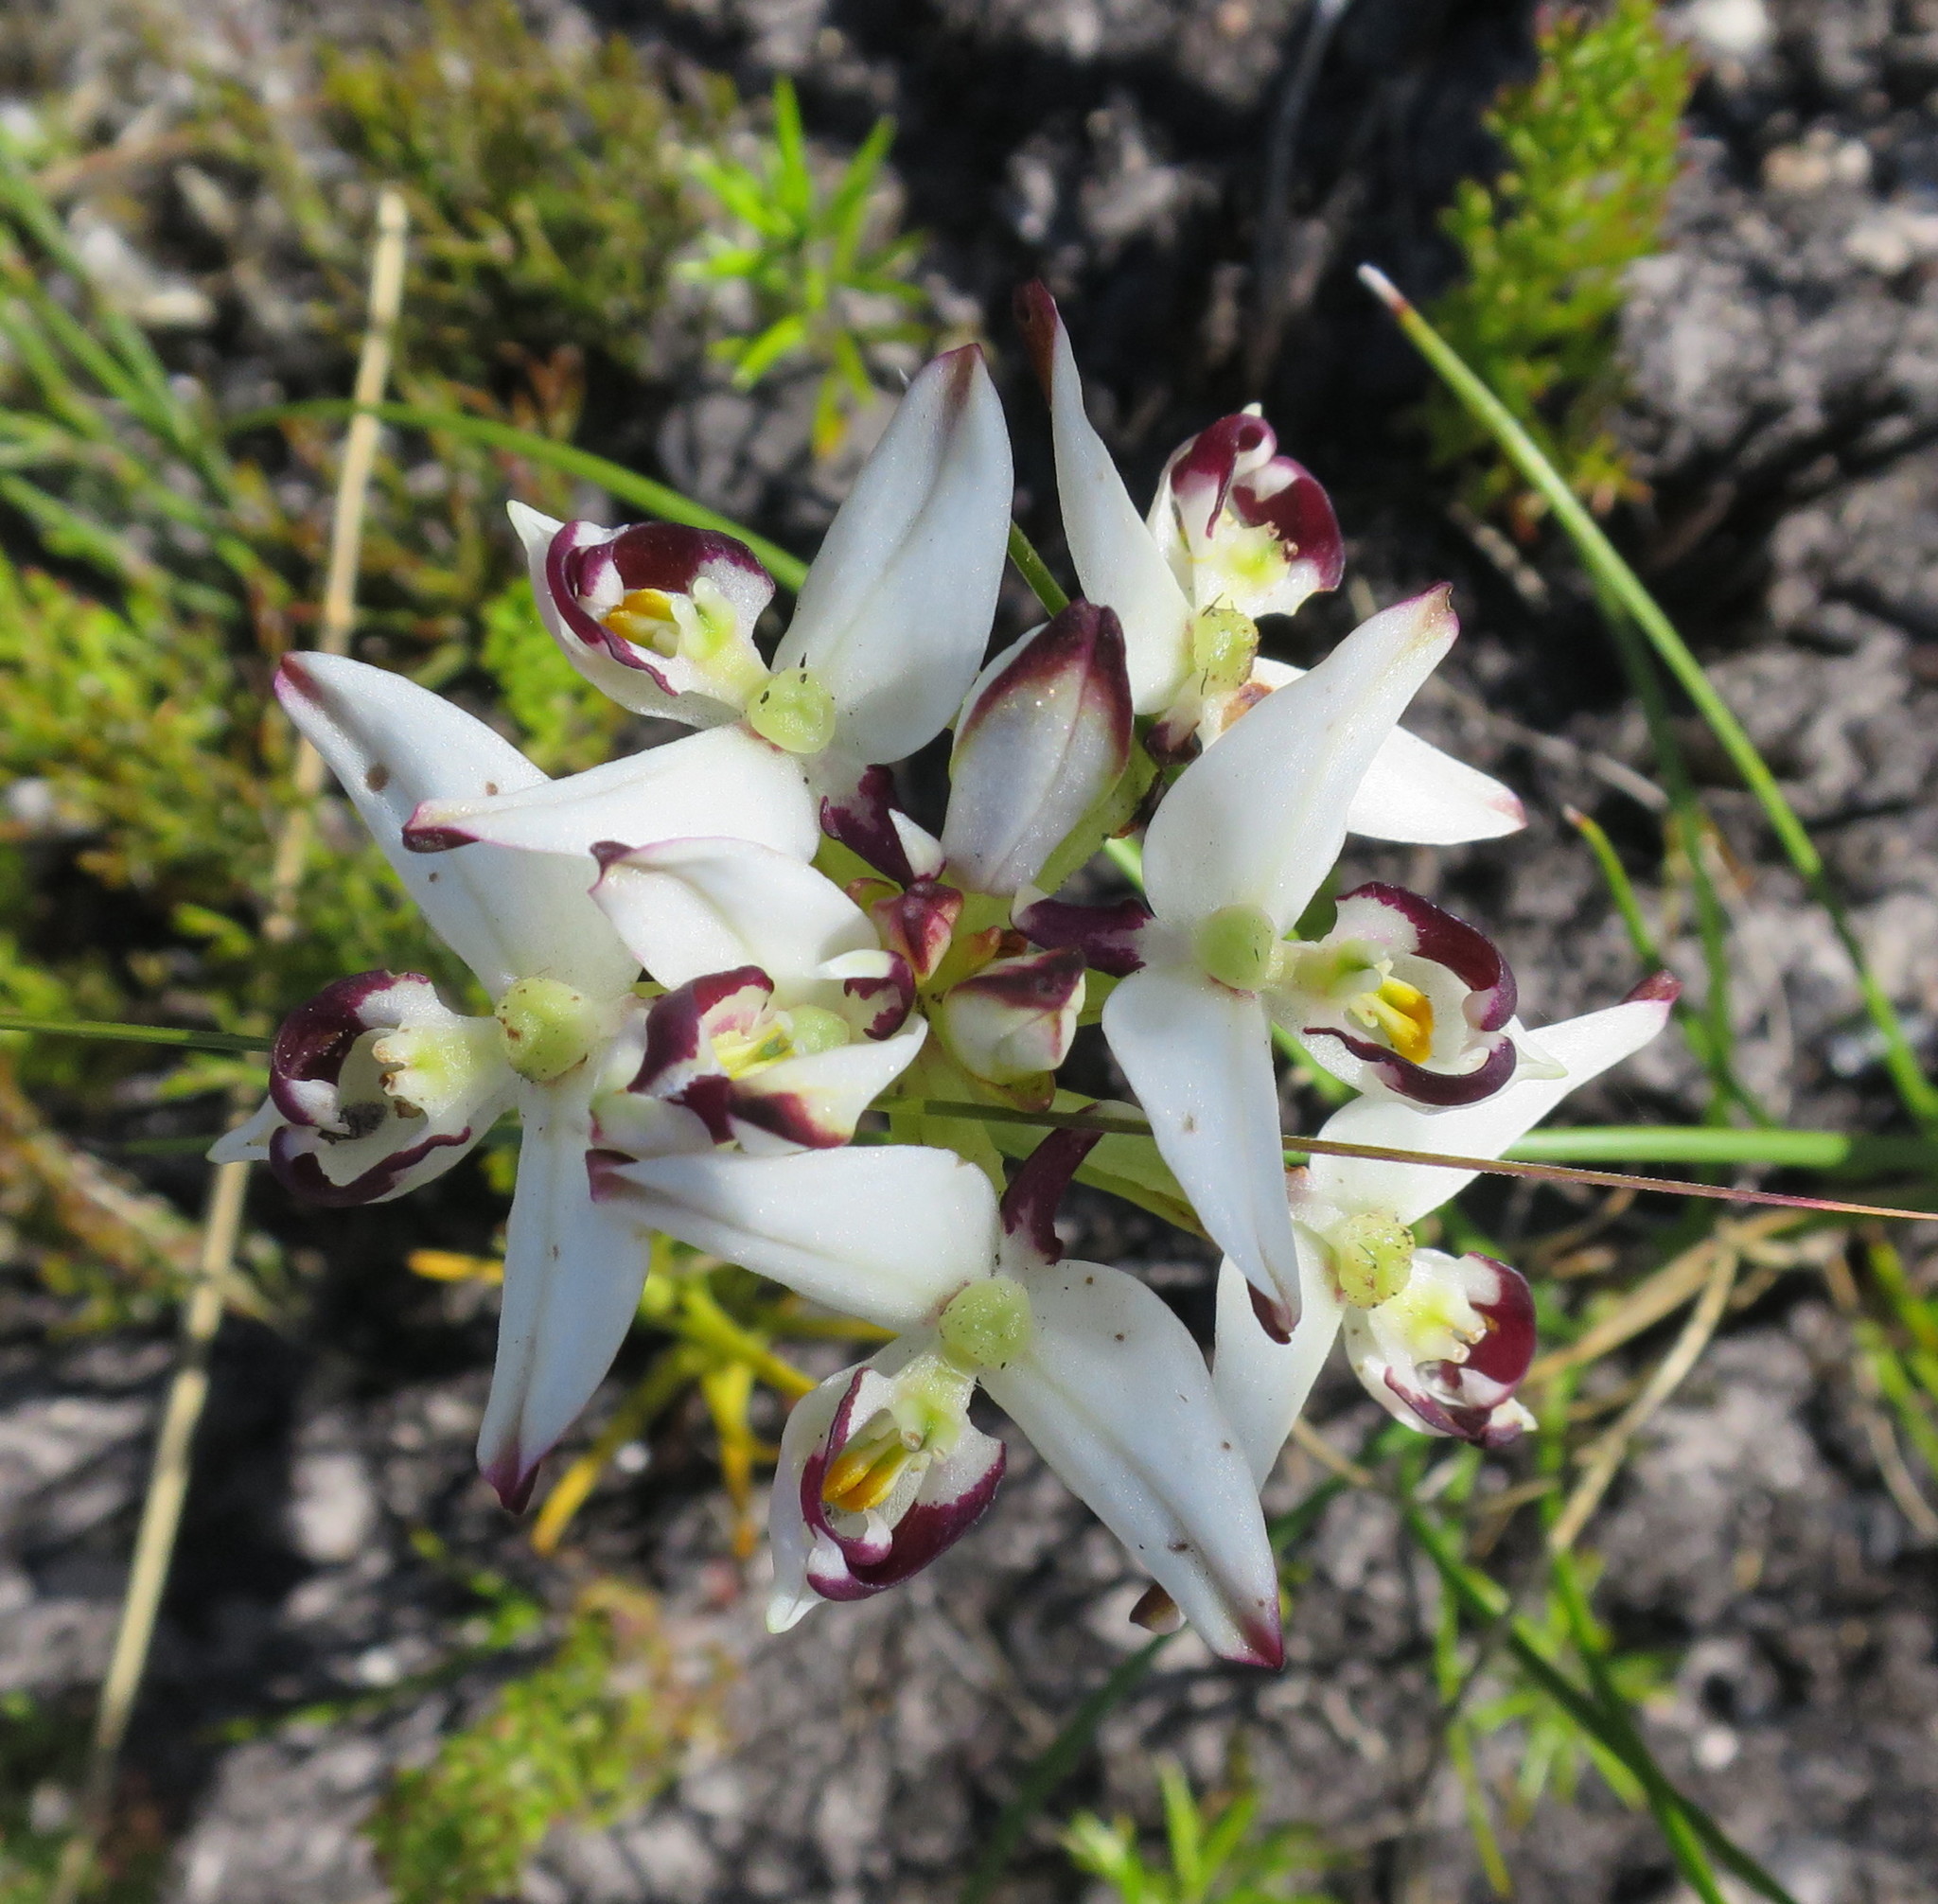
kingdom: Plantae
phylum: Tracheophyta
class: Liliopsida
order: Asparagales
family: Orchidaceae
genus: Disa
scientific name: Disa bivalvata
